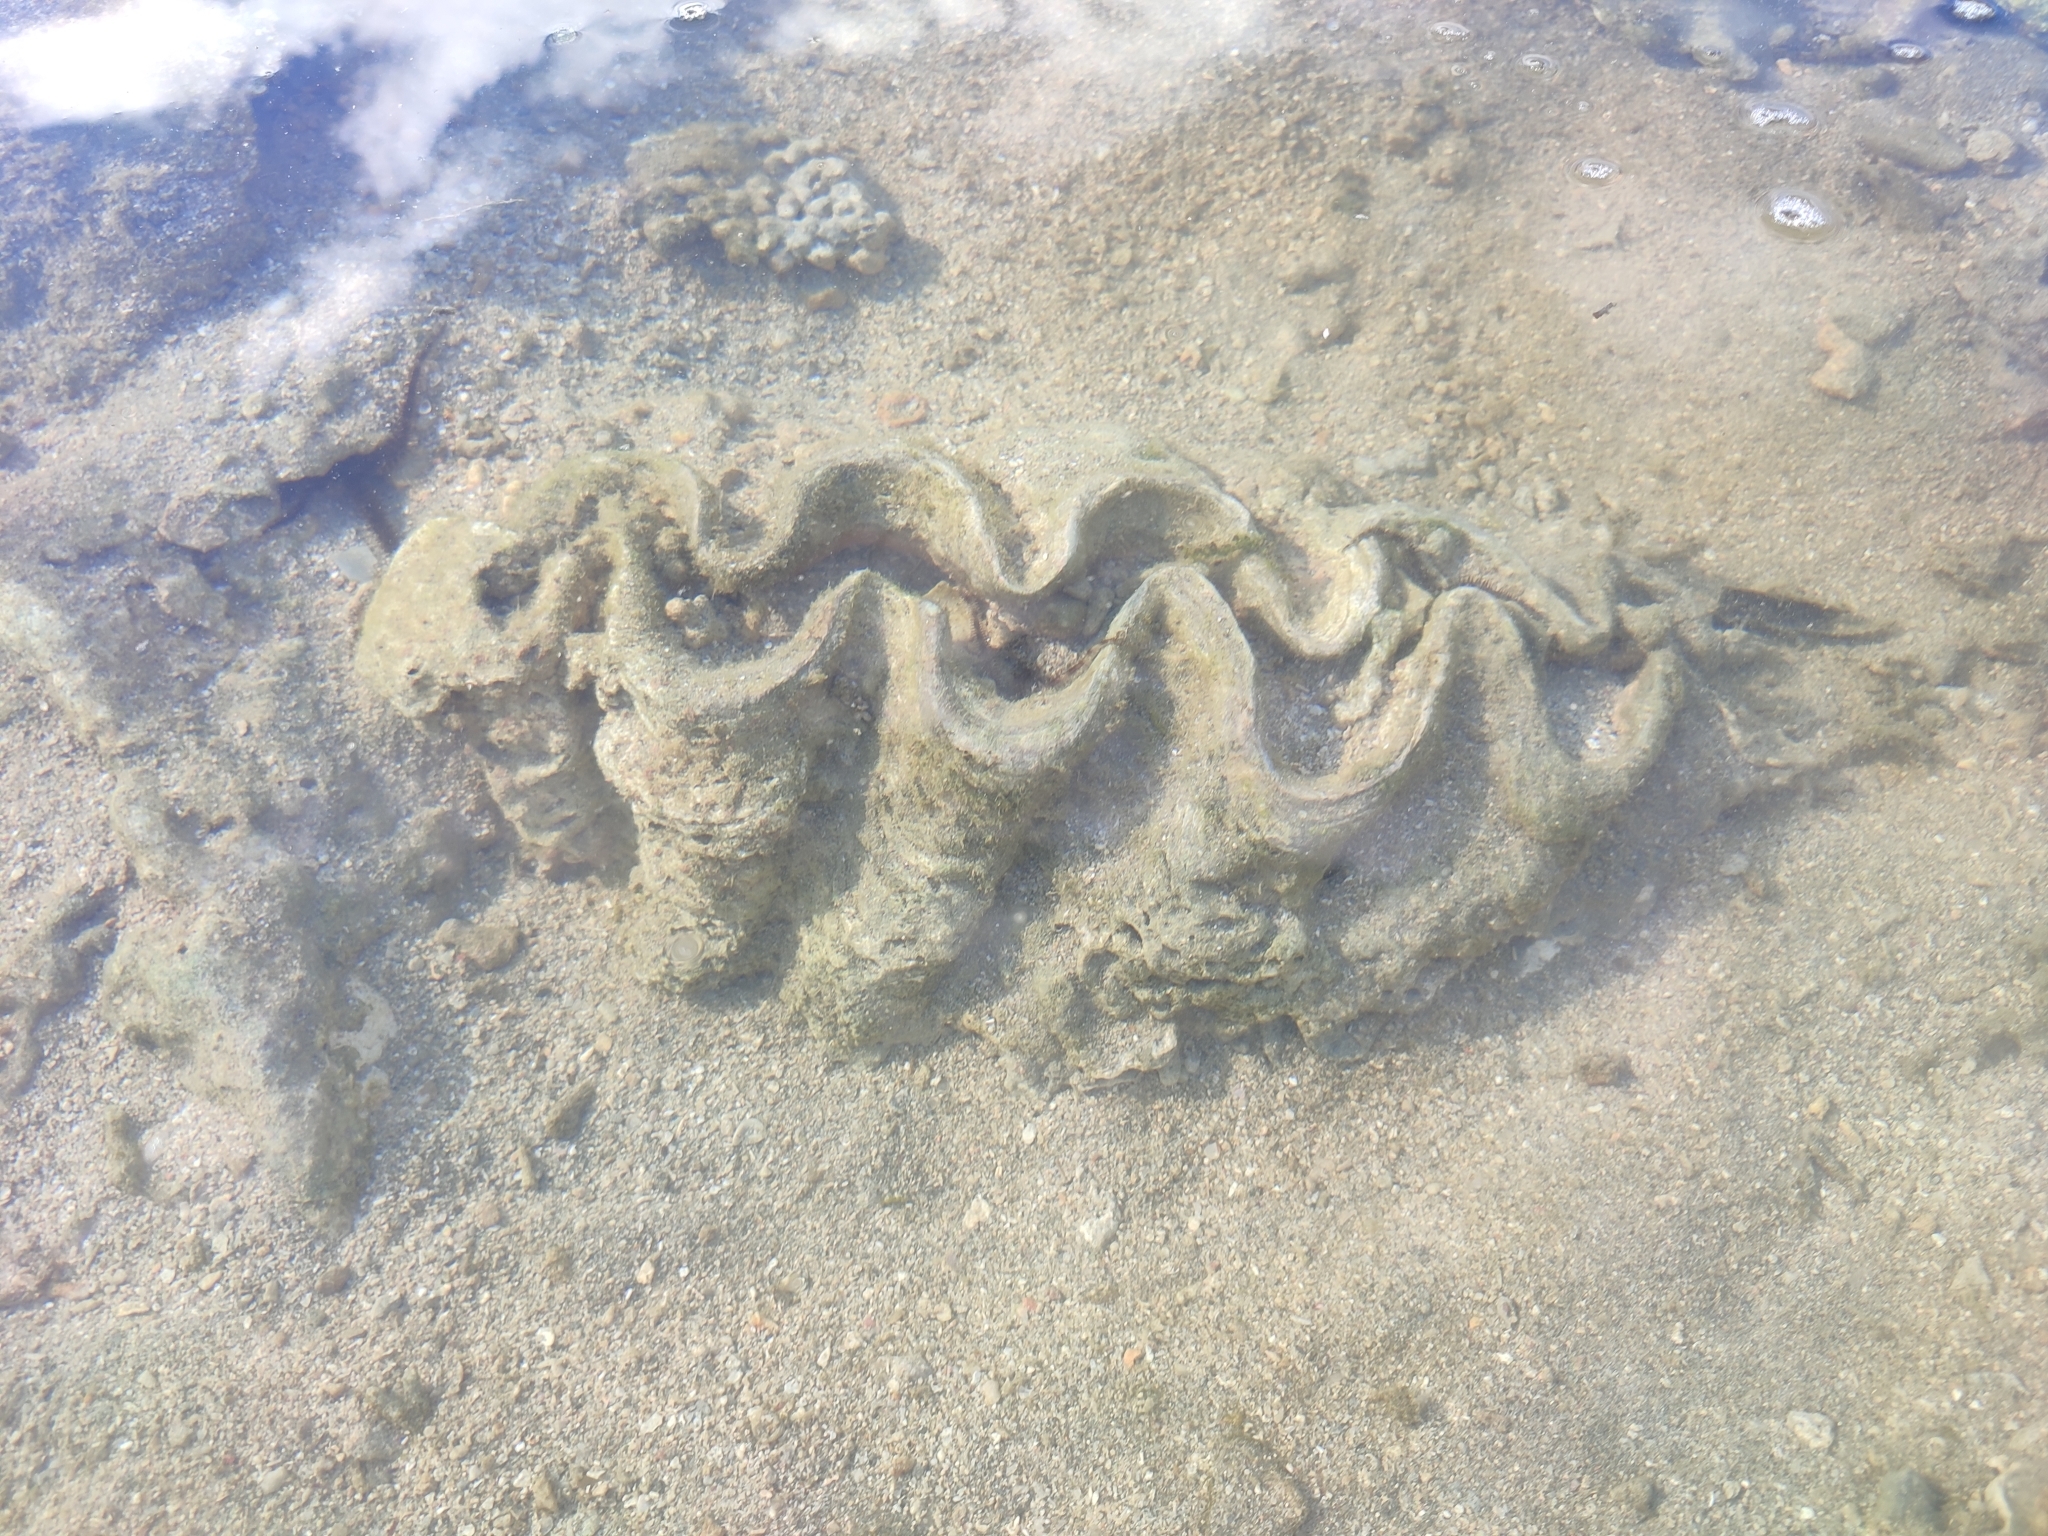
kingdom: Animalia
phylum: Mollusca
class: Bivalvia
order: Cardiida
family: Cardiidae
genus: Tridacna
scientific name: Tridacna
